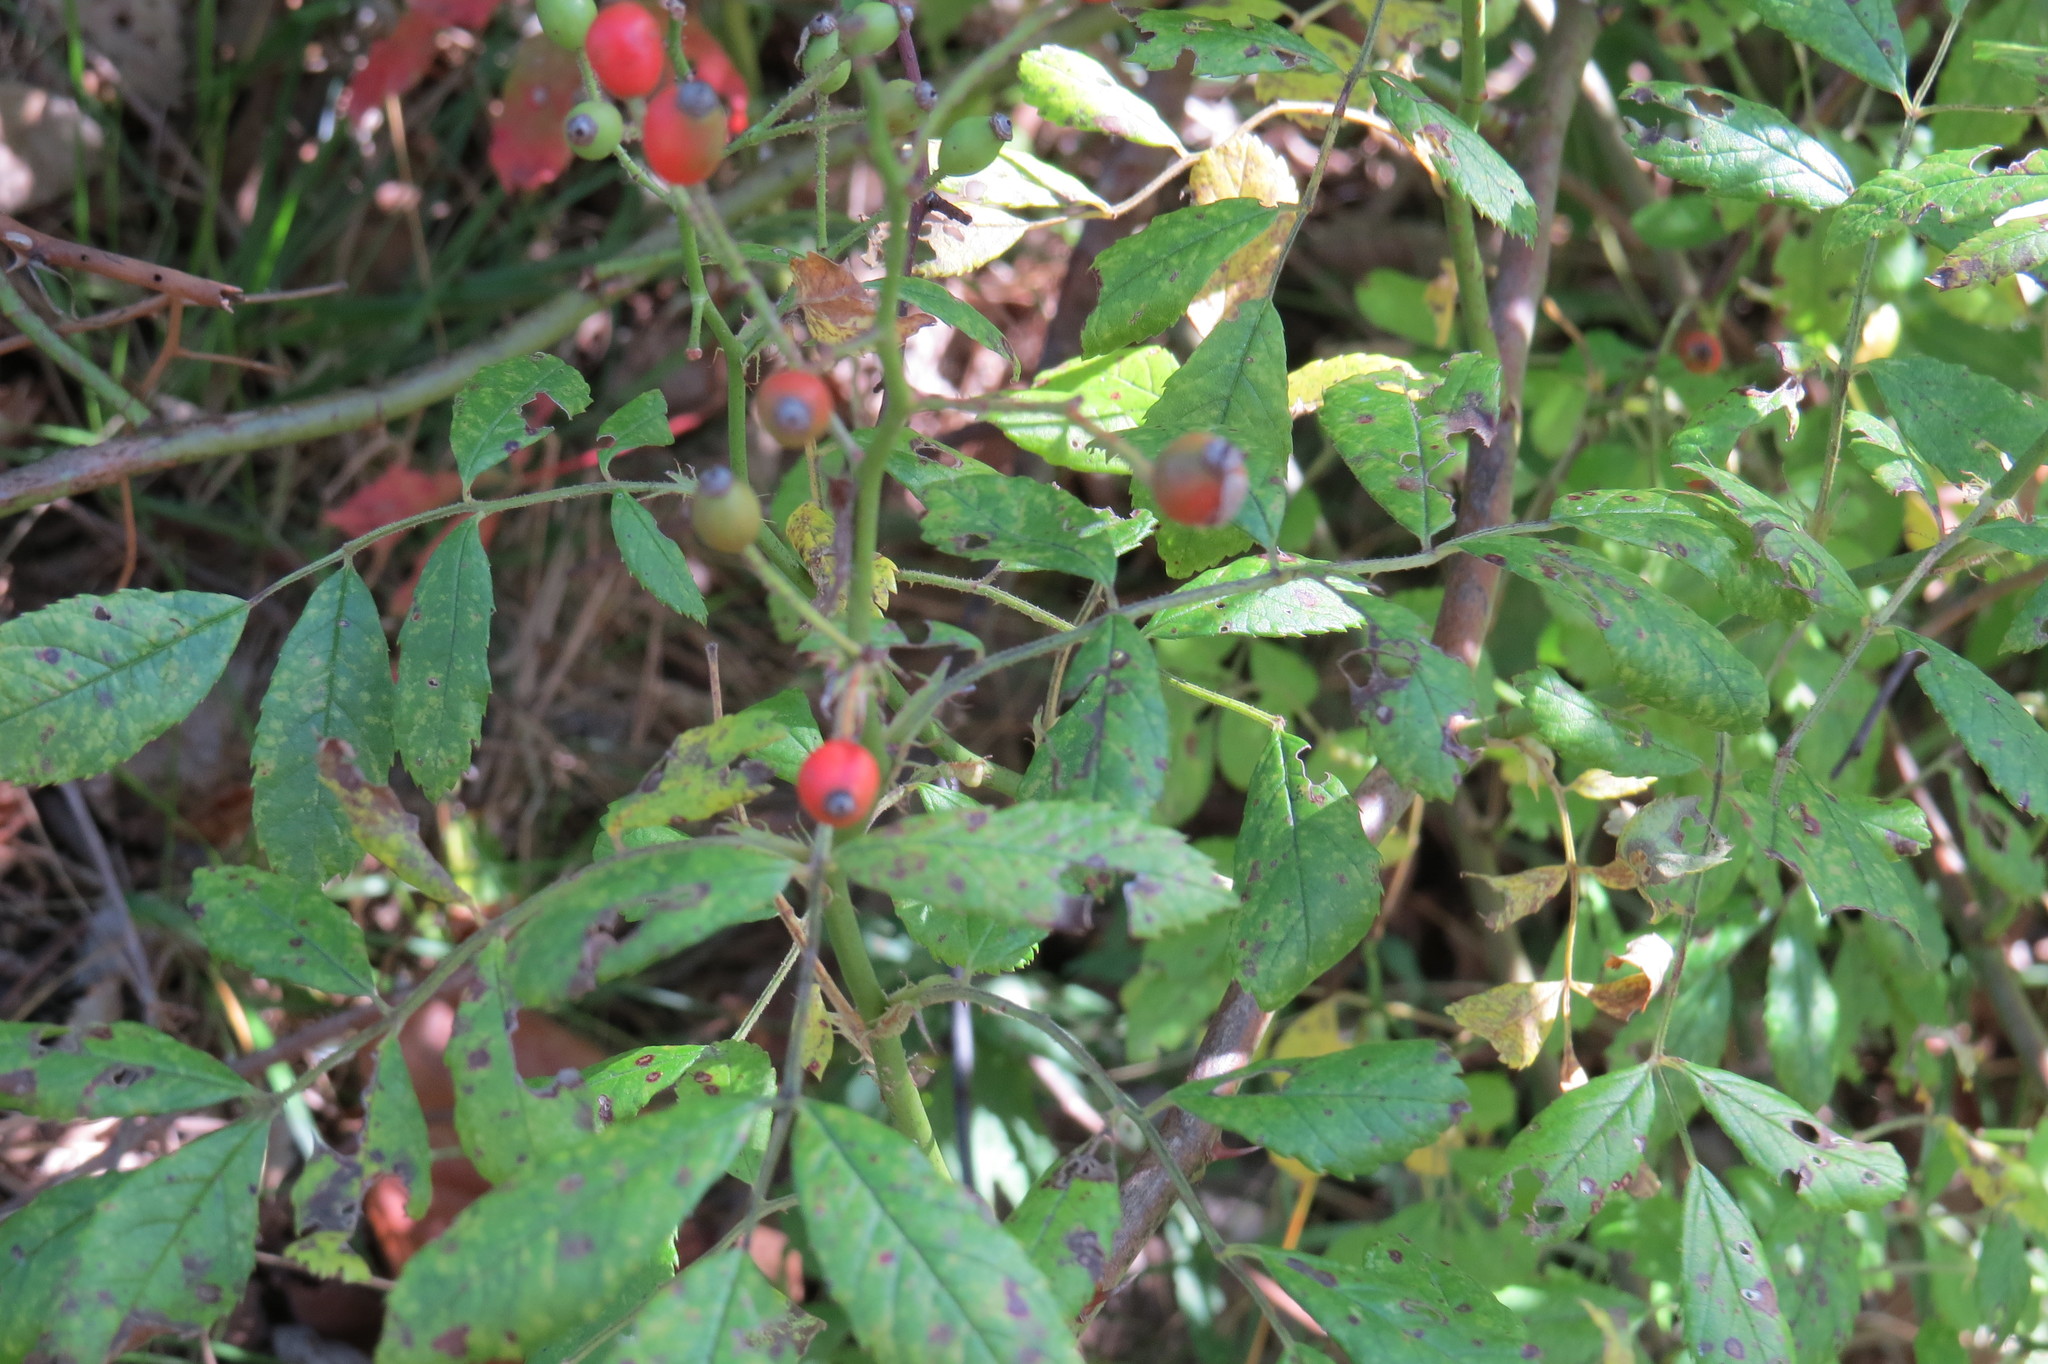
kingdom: Plantae
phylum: Tracheophyta
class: Magnoliopsida
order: Rosales
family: Rosaceae
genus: Rosa
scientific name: Rosa multiflora
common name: Multiflora rose
